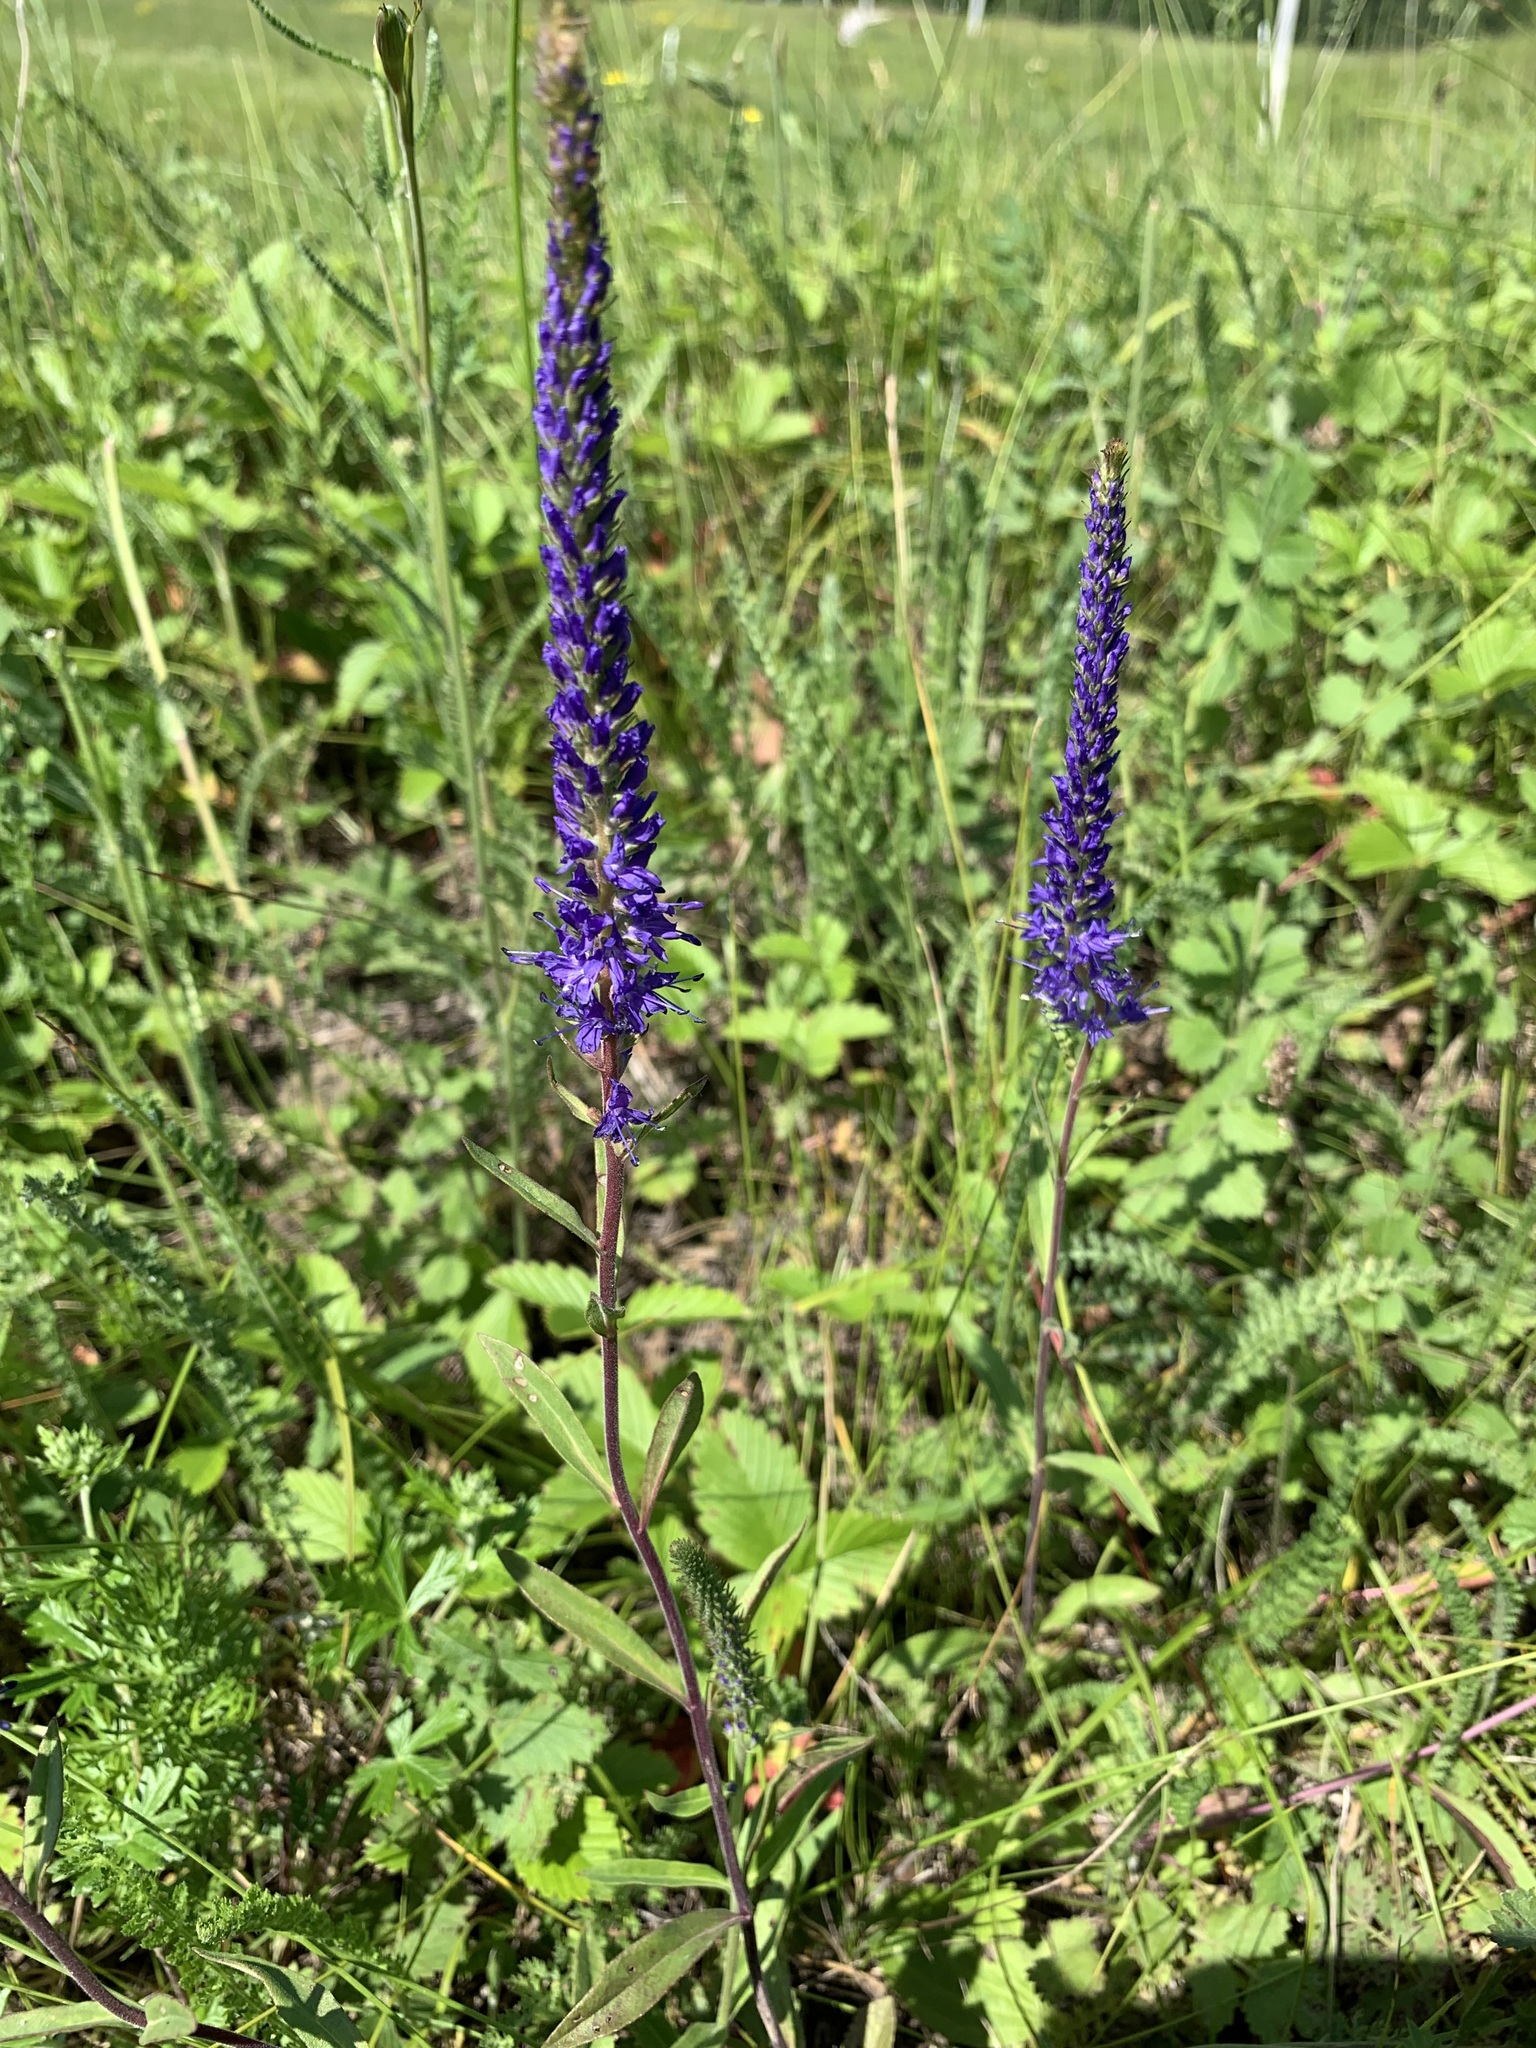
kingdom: Plantae
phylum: Tracheophyta
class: Magnoliopsida
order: Lamiales
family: Plantaginaceae
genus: Veronica
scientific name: Veronica spicata
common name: Spiked speedwell
